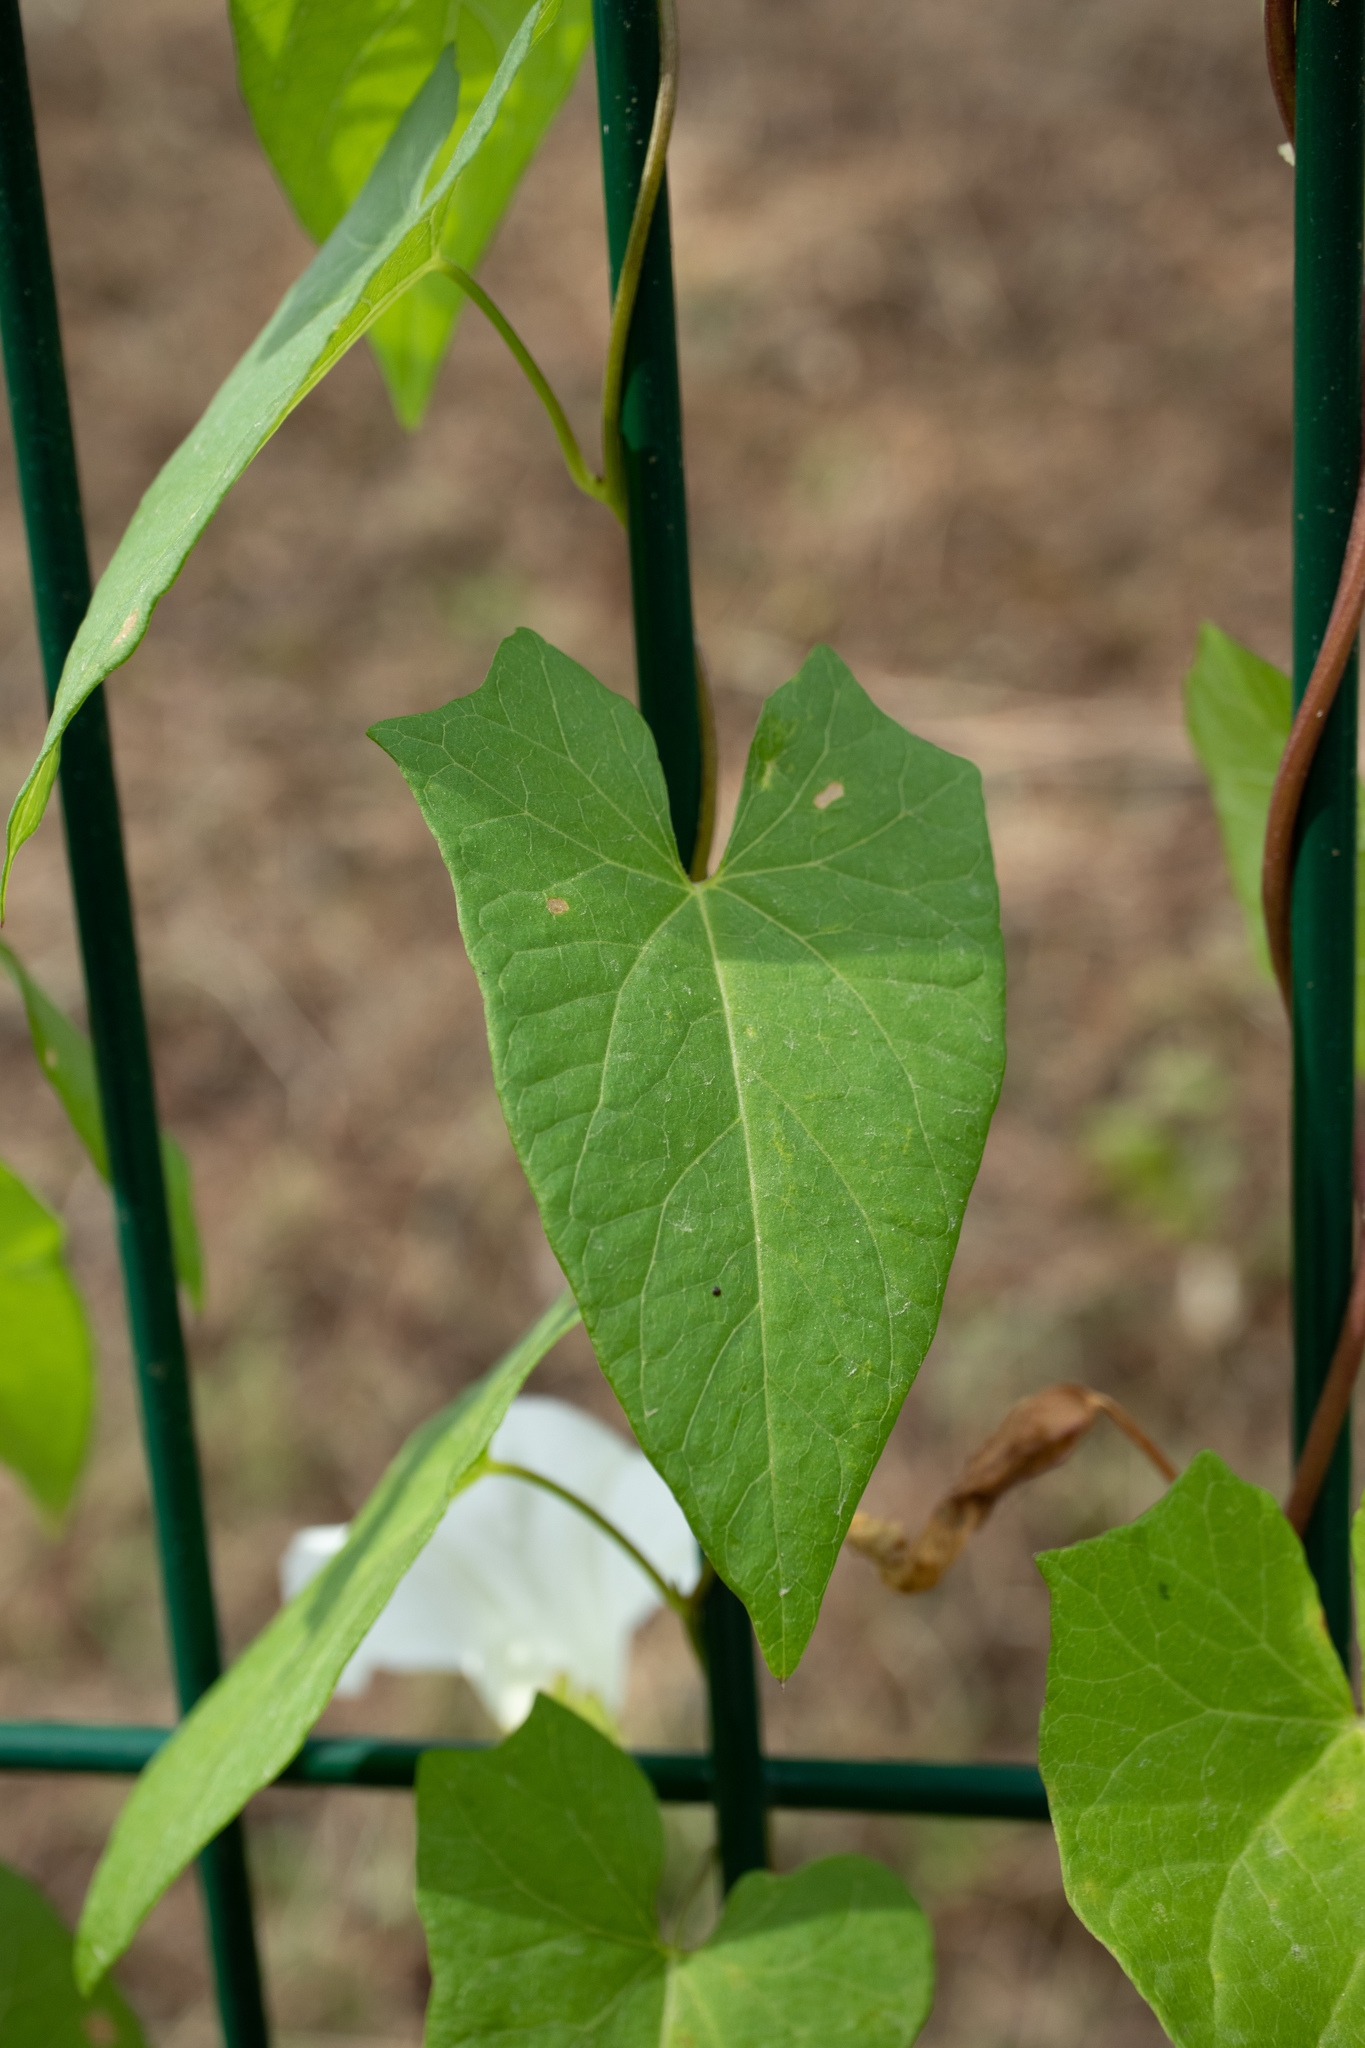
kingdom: Plantae
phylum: Tracheophyta
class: Magnoliopsida
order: Solanales
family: Convolvulaceae
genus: Calystegia
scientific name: Calystegia sepium
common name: Hedge bindweed
